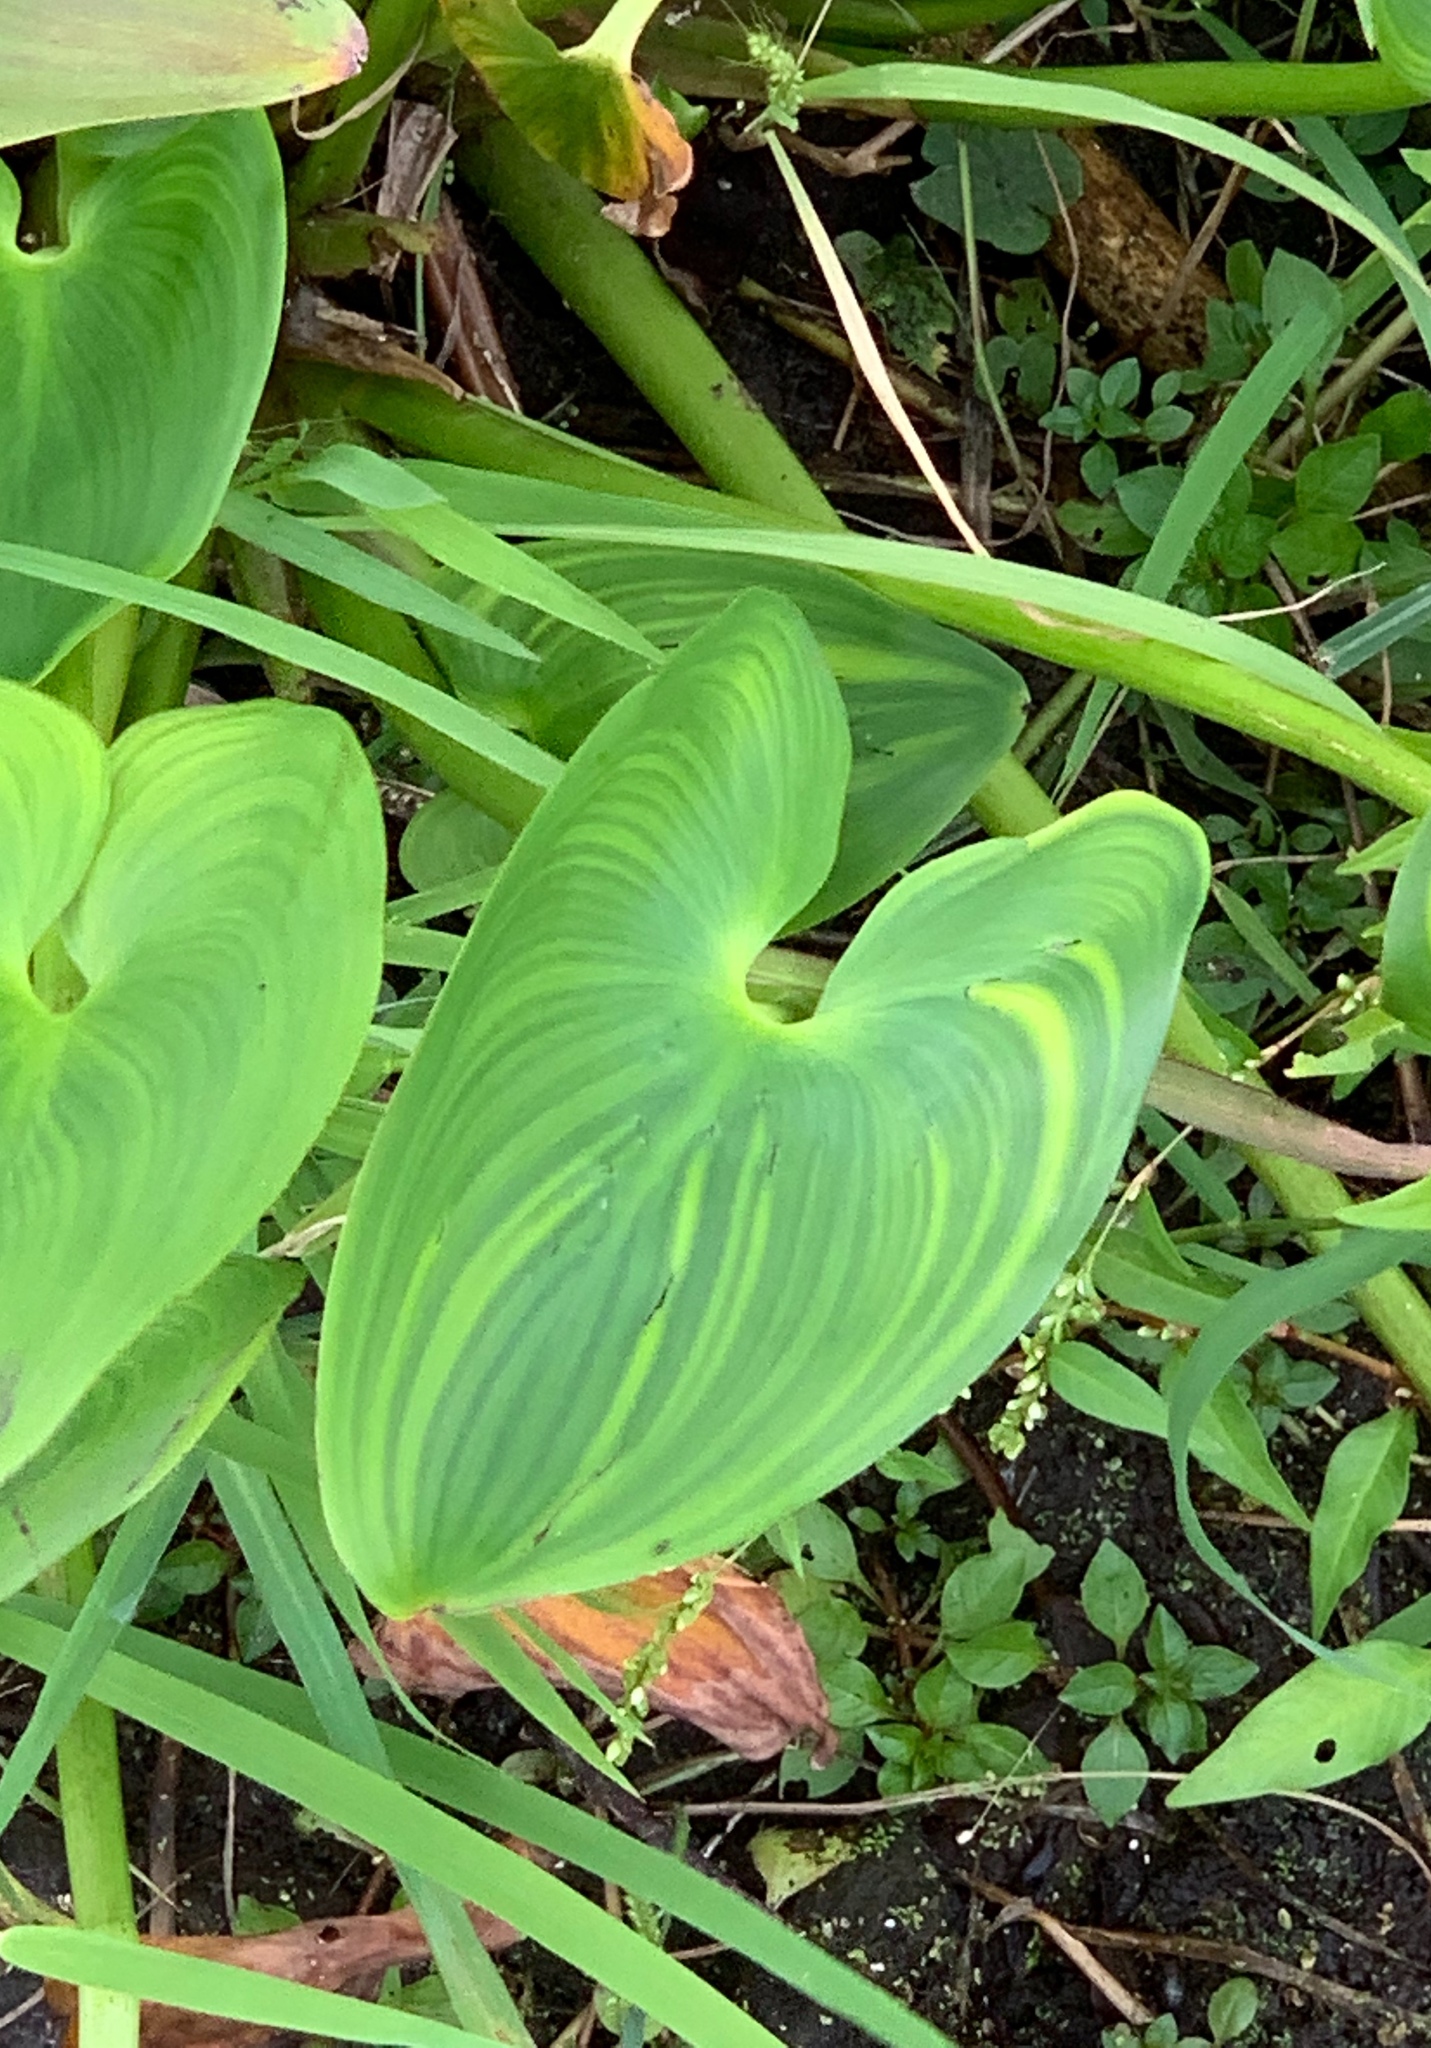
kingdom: Plantae
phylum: Tracheophyta
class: Liliopsida
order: Commelinales
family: Pontederiaceae
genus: Pontederia
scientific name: Pontederia cordata
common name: Pickerelweed
